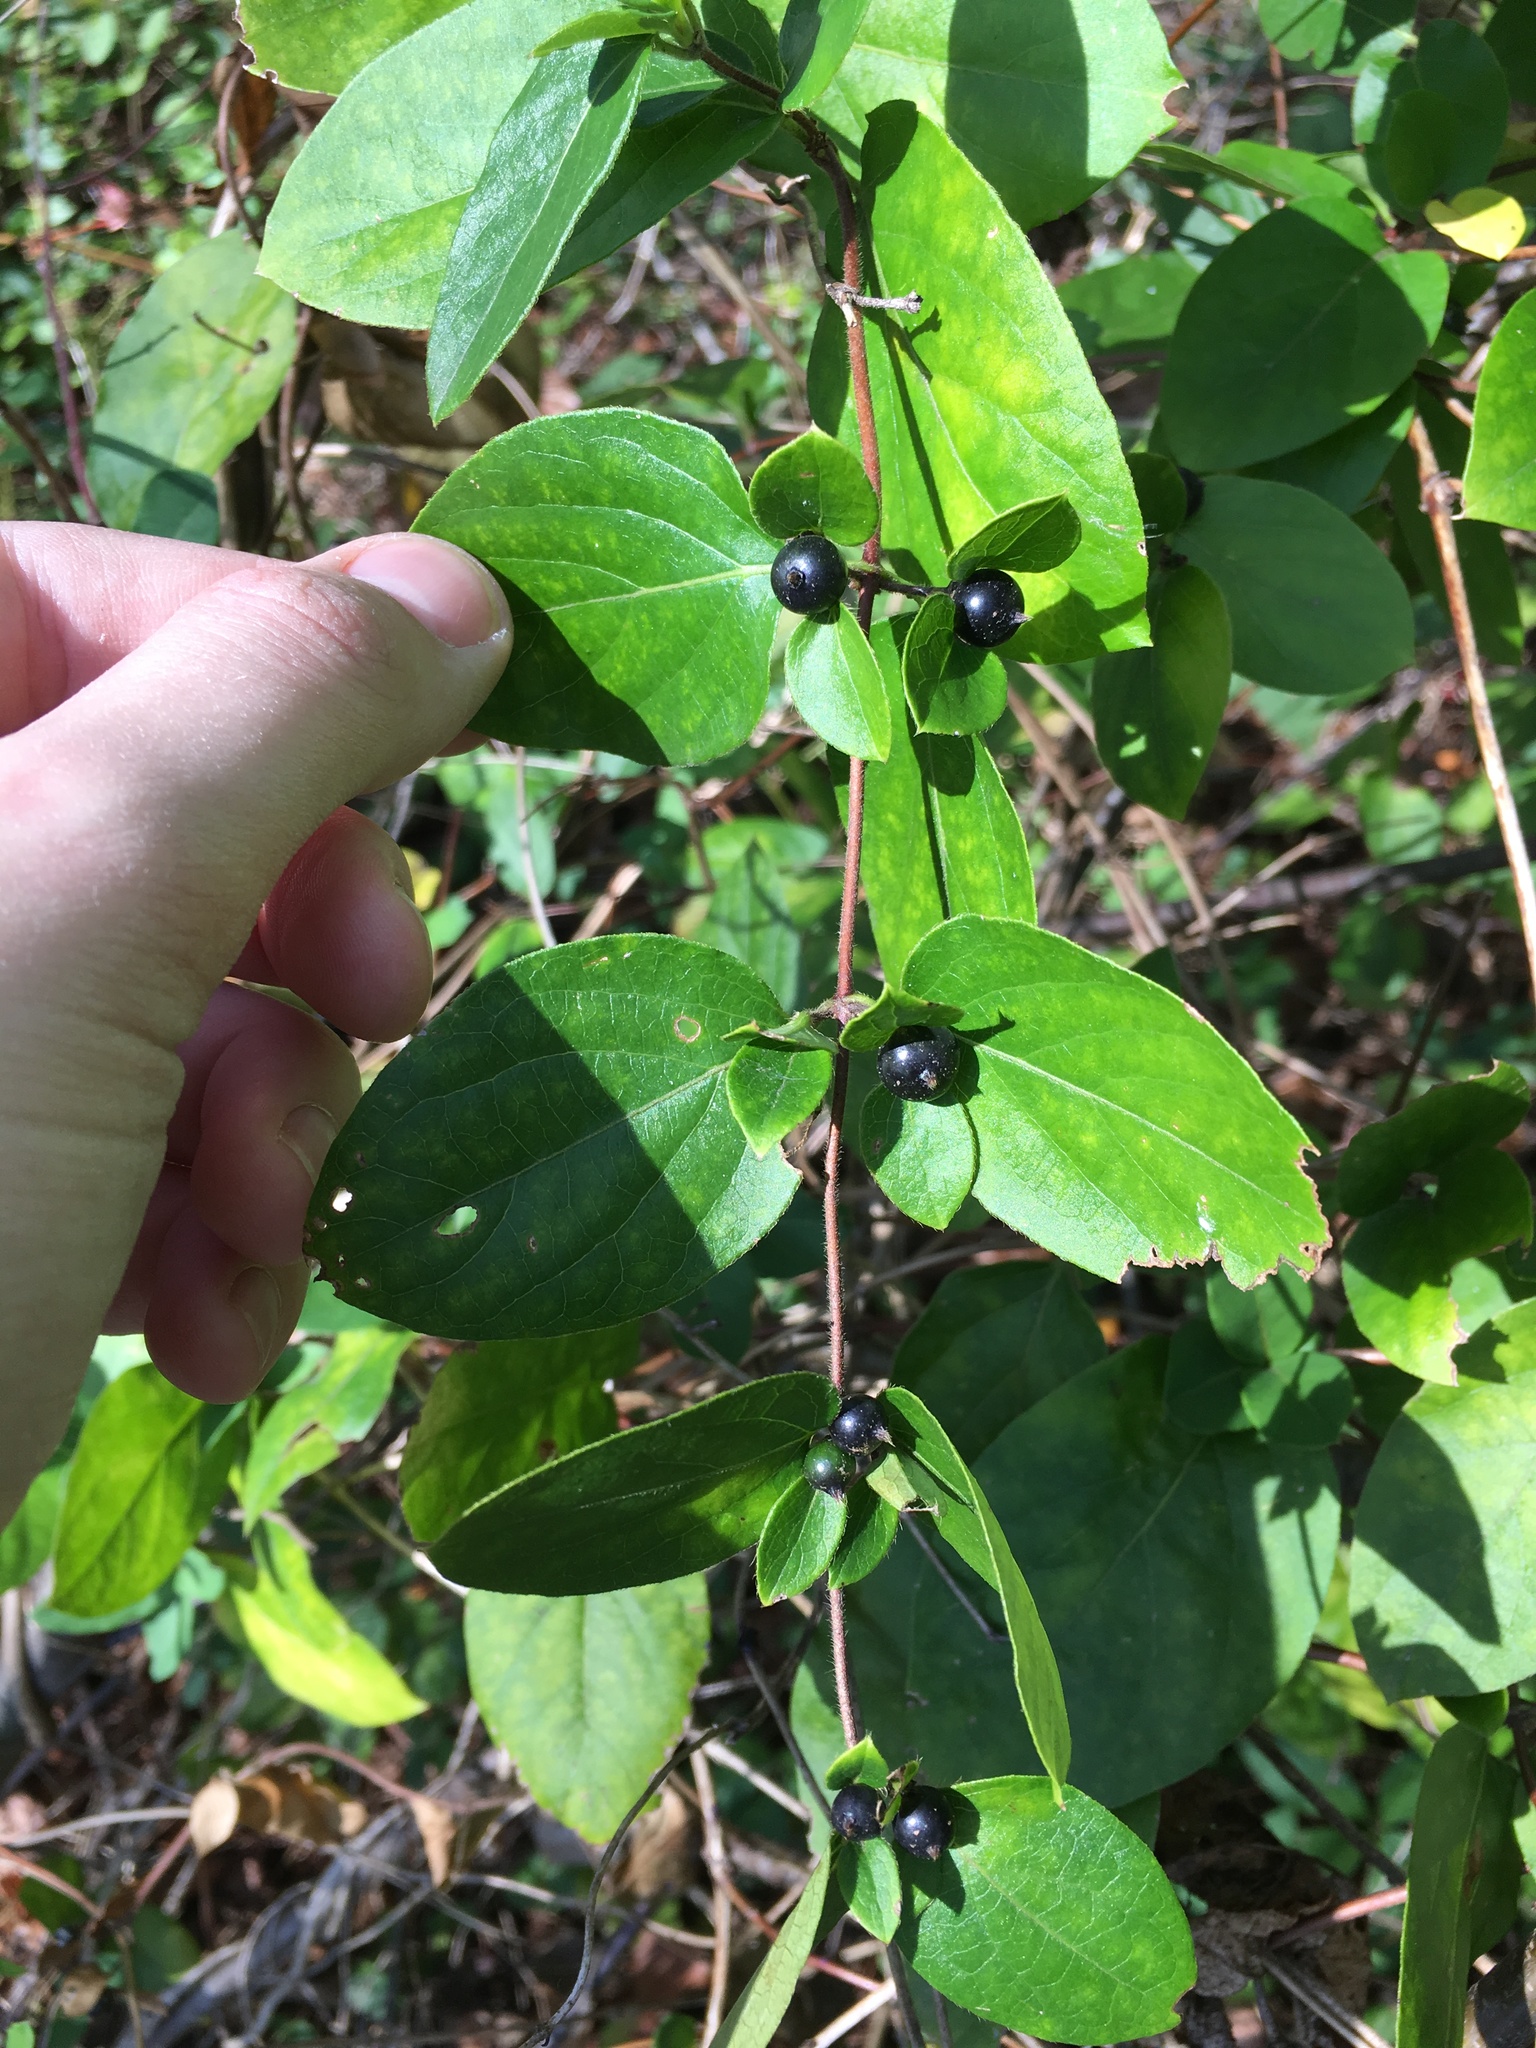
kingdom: Plantae
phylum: Tracheophyta
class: Magnoliopsida
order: Dipsacales
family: Caprifoliaceae
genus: Lonicera
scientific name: Lonicera japonica
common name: Japanese honeysuckle
